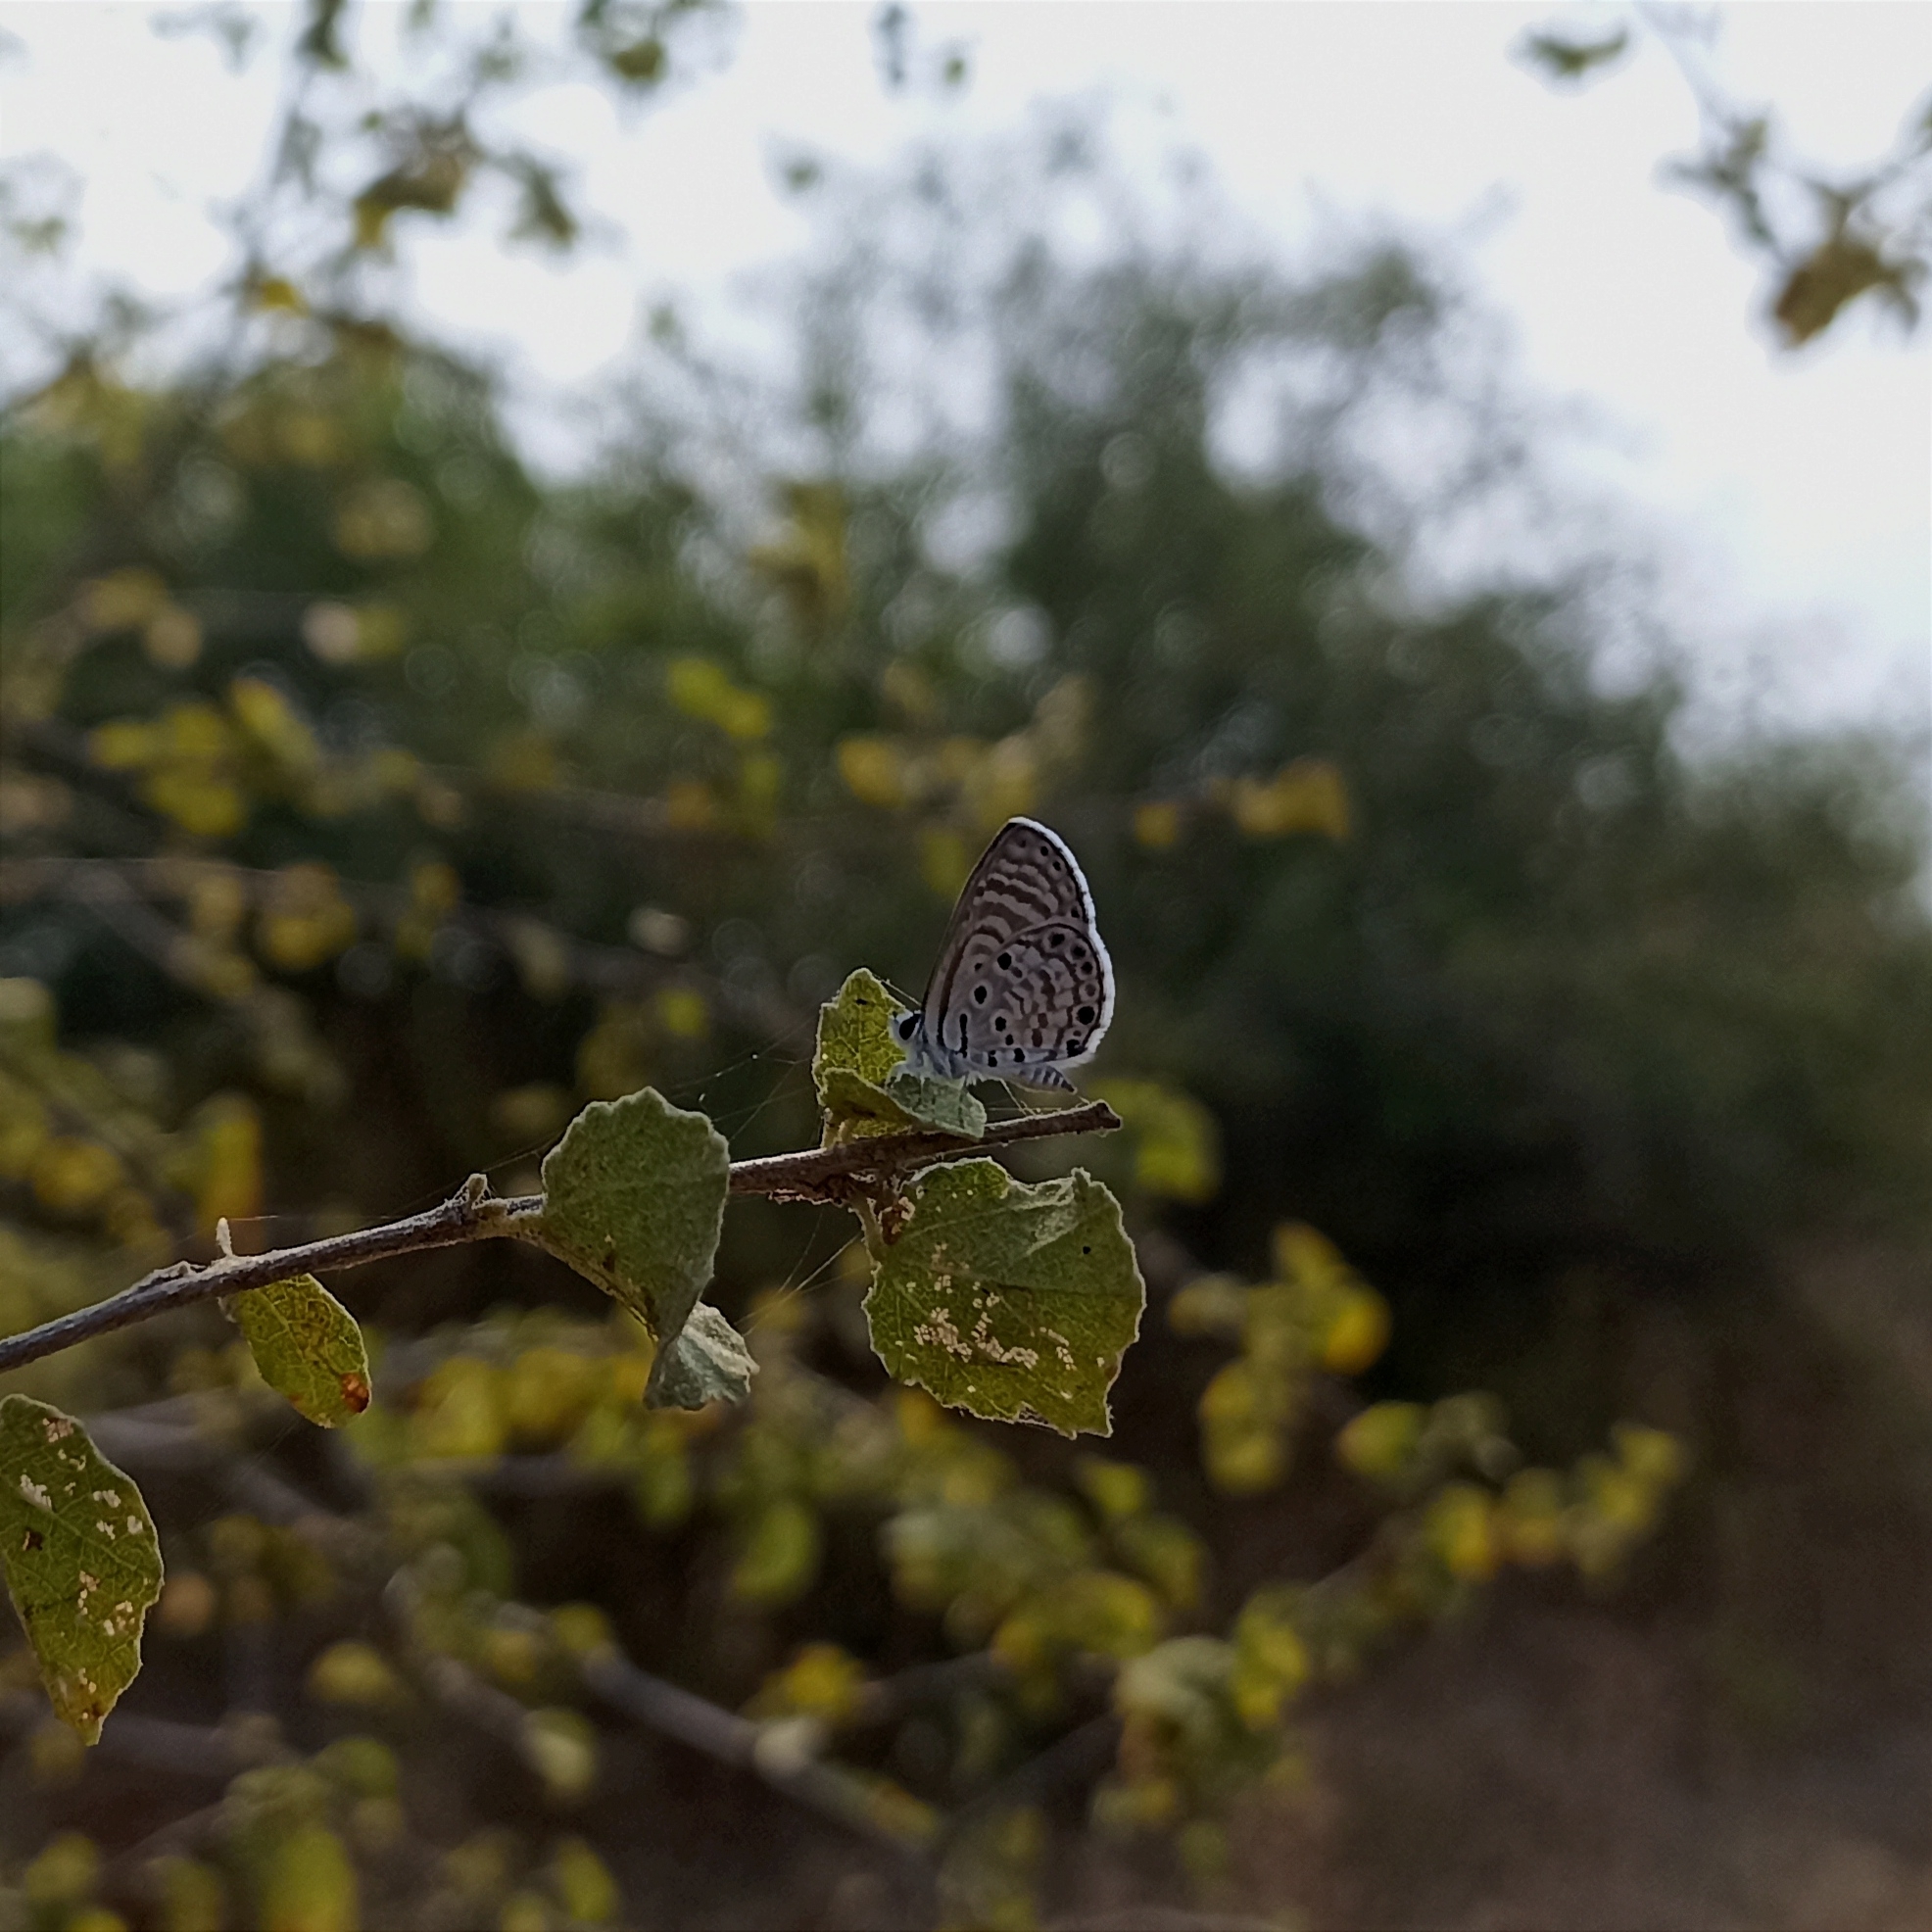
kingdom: Animalia
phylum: Arthropoda
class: Insecta
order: Lepidoptera
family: Lycaenidae
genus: Azanus
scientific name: Azanus jesous
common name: African babul blue
